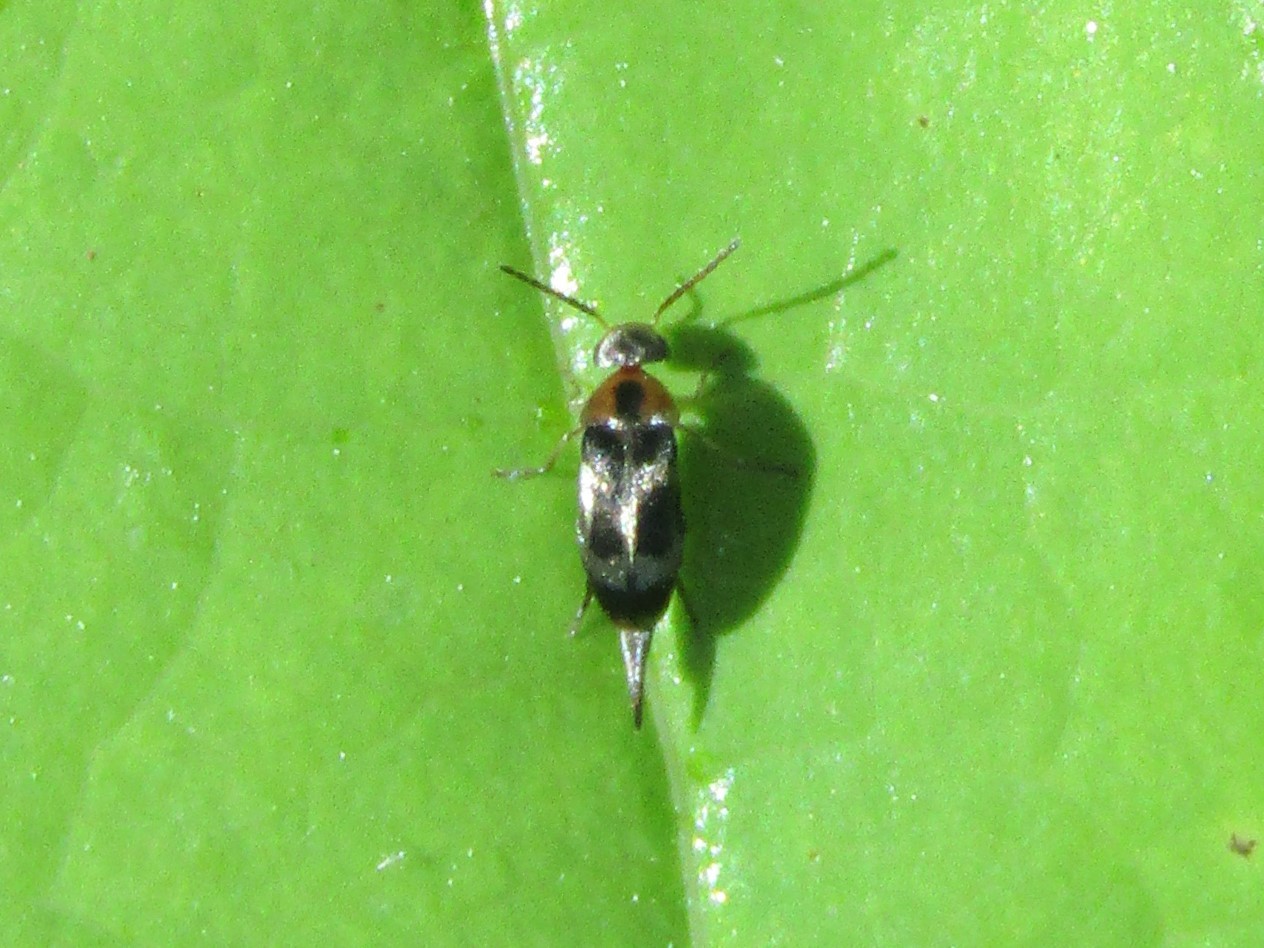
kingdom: Animalia
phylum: Arthropoda
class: Insecta
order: Coleoptera
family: Mordellidae
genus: Falsomordellistena
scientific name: Falsomordellistena hebraica
